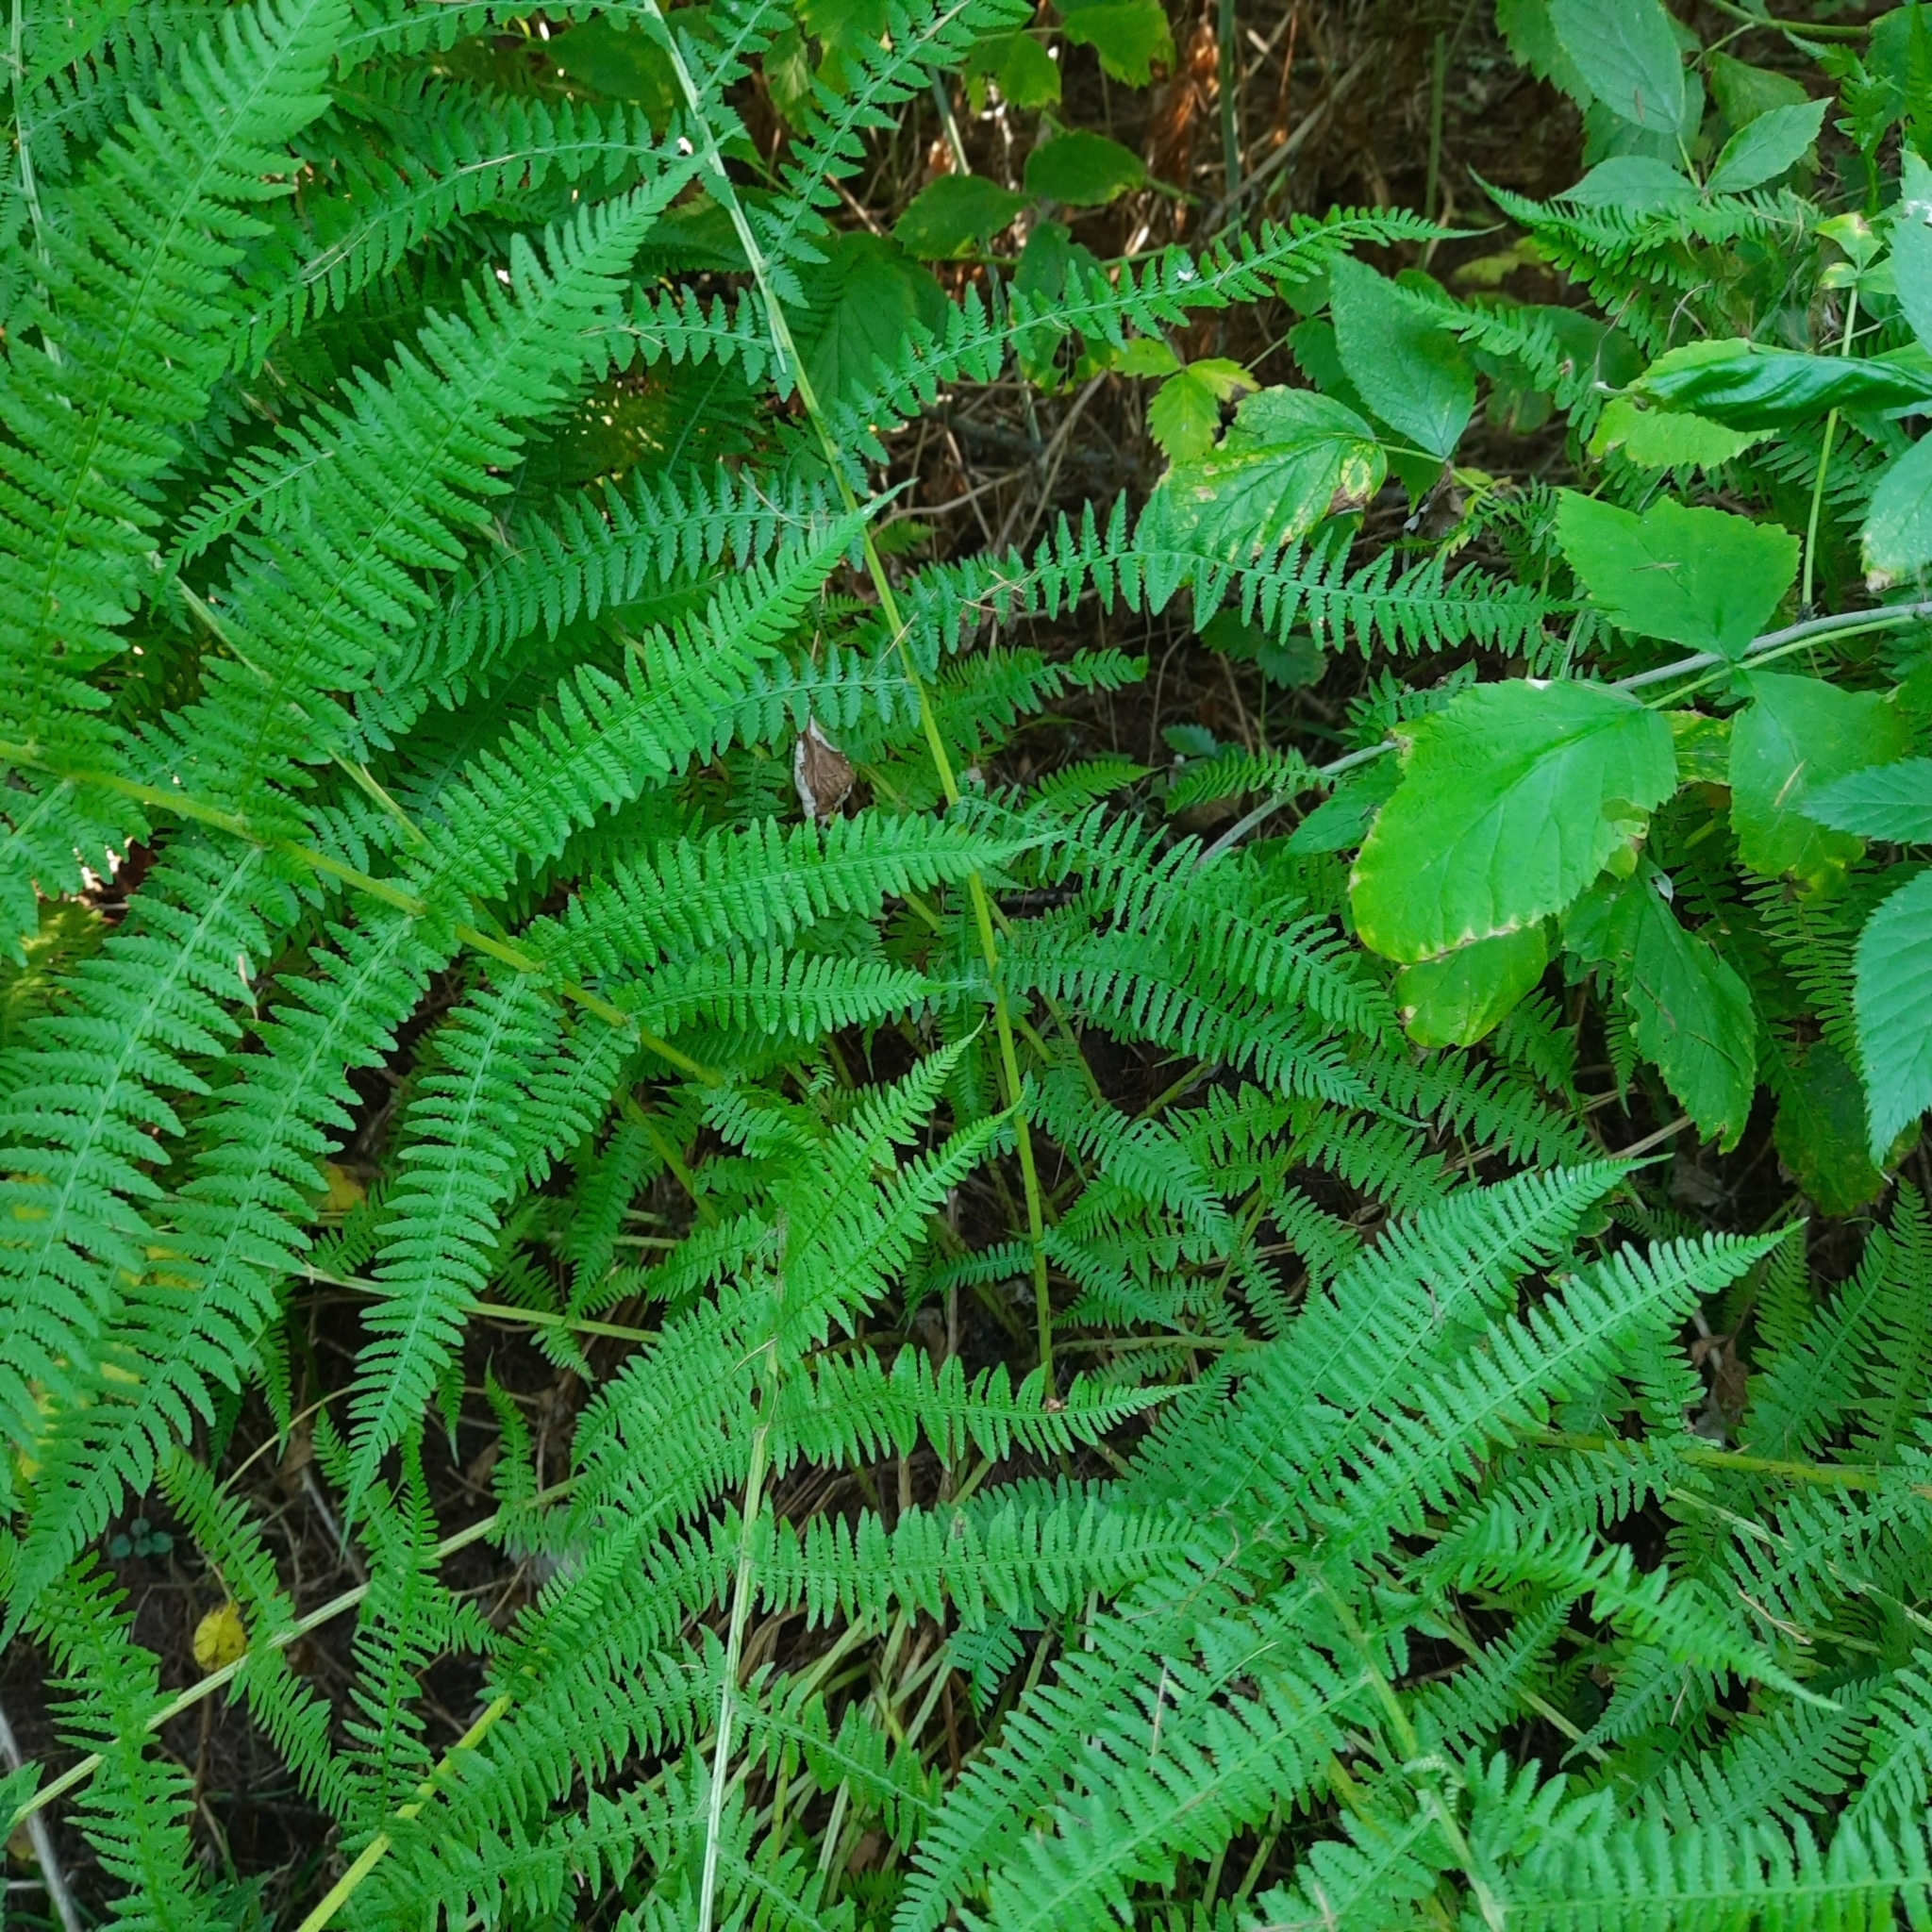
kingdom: Plantae
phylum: Tracheophyta
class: Polypodiopsida
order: Polypodiales
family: Athyriaceae
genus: Athyrium
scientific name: Athyrium filix-femina
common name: Lady fern
